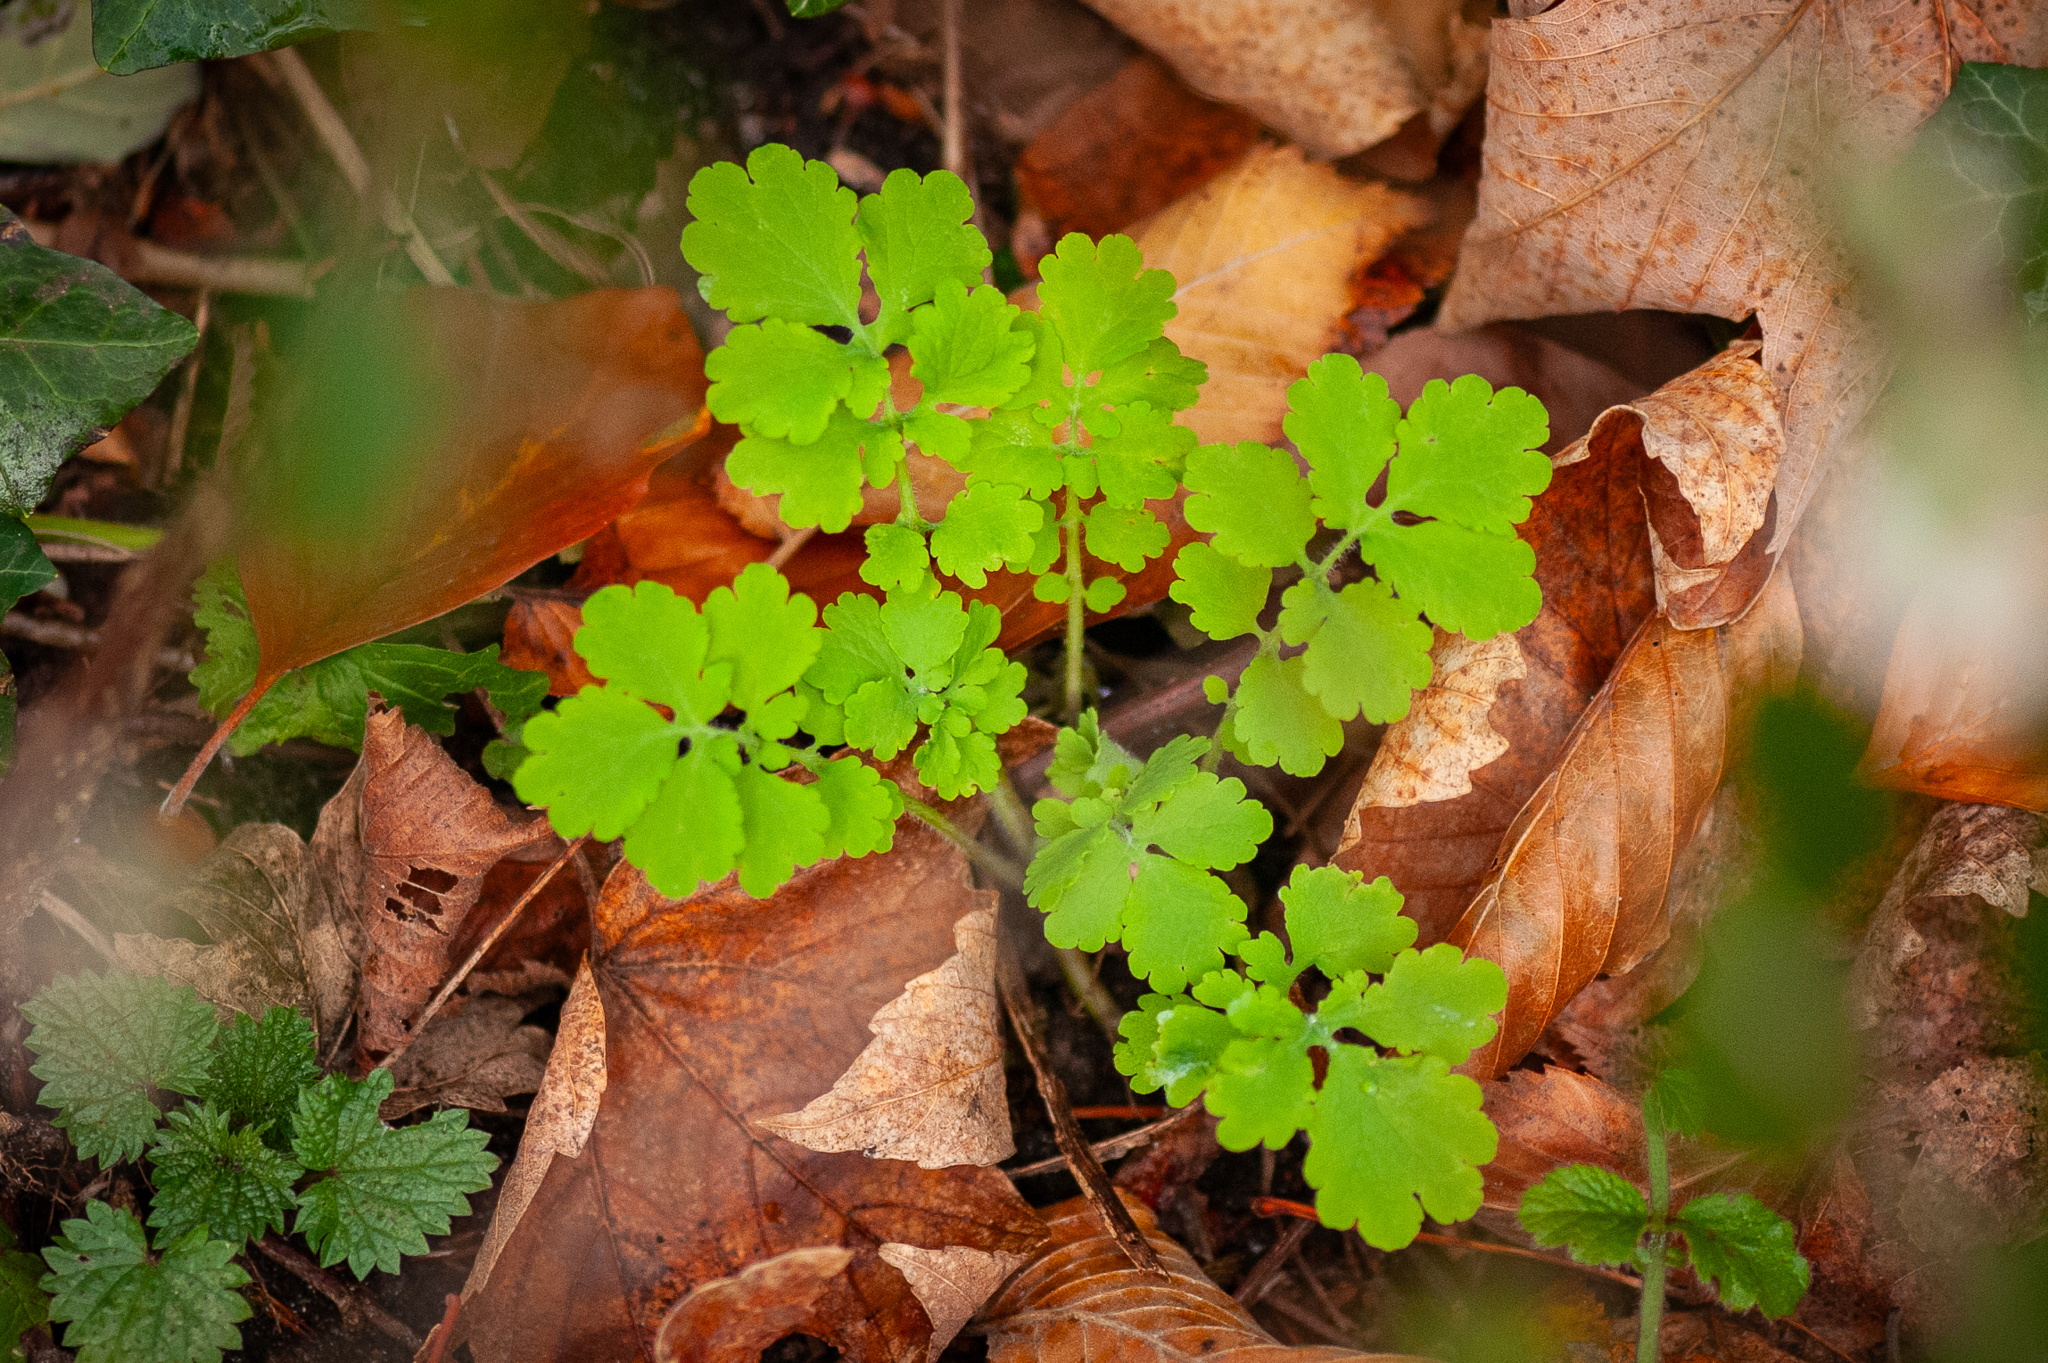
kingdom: Plantae
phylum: Tracheophyta
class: Magnoliopsida
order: Ranunculales
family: Papaveraceae
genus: Chelidonium
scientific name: Chelidonium majus
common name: Greater celandine
